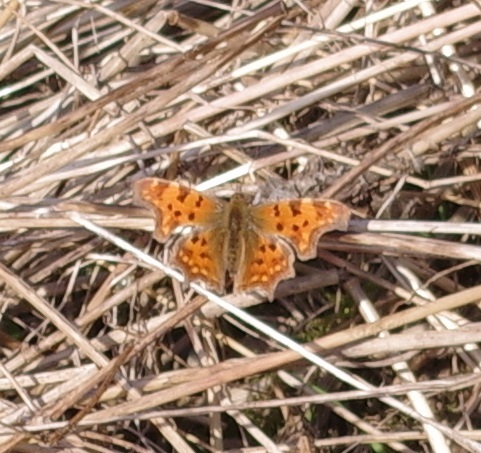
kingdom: Animalia
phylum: Arthropoda
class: Insecta
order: Lepidoptera
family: Nymphalidae
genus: Polygonia
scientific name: Polygonia c-album
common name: Comma
